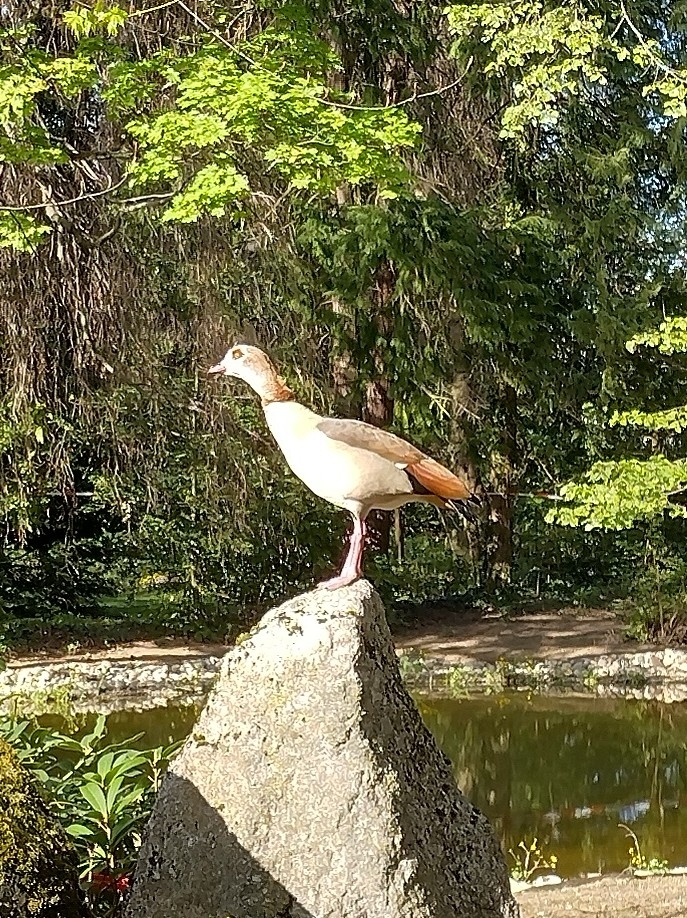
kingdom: Animalia
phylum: Chordata
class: Aves
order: Anseriformes
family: Anatidae
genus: Alopochen
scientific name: Alopochen aegyptiaca
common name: Egyptian goose
